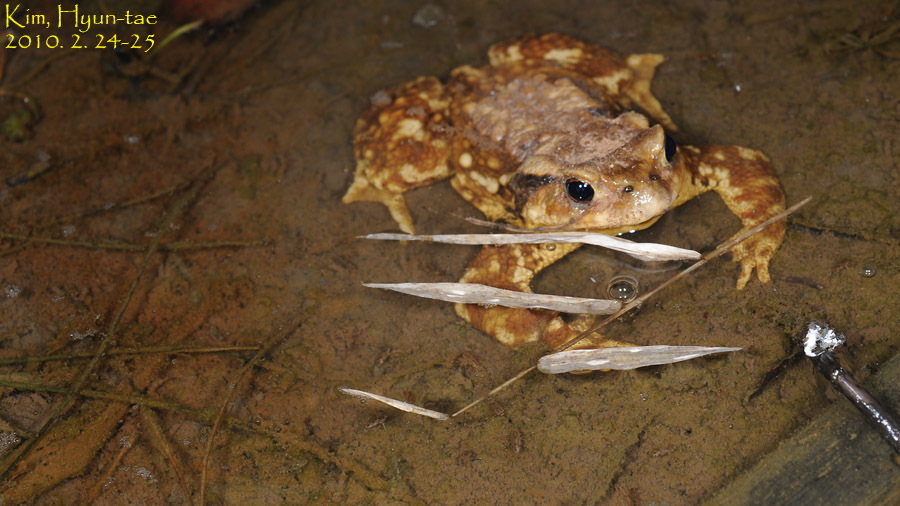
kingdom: Animalia
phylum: Chordata
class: Amphibia
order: Anura
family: Bufonidae
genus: Bufo
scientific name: Bufo gargarizans
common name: Asiatic toad
